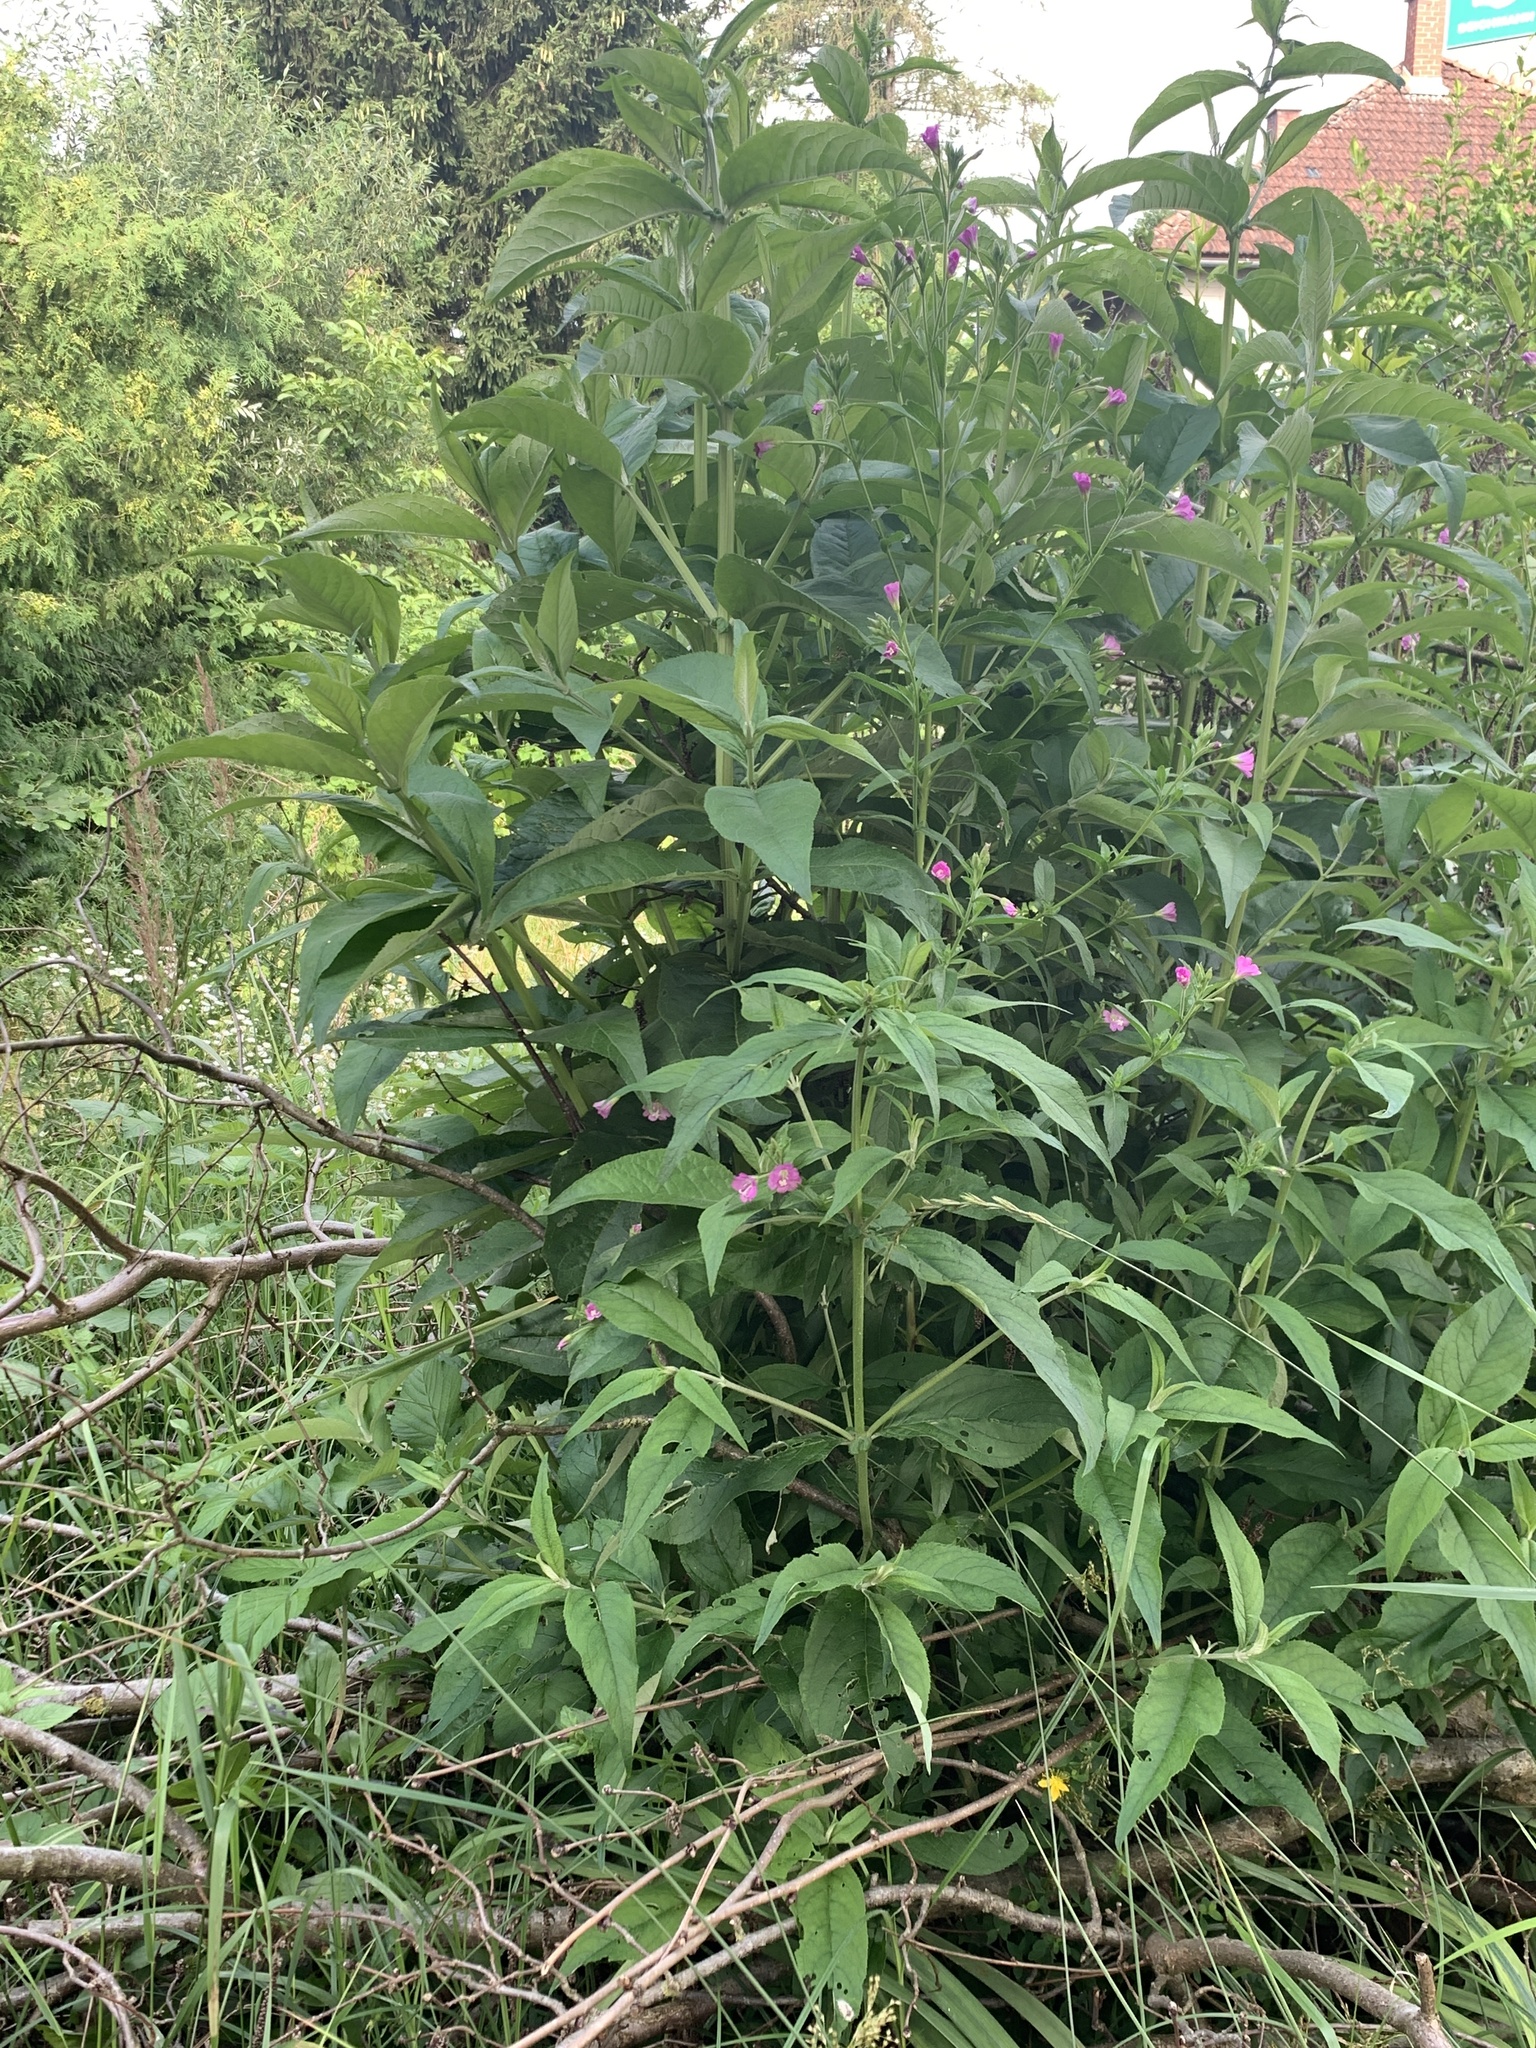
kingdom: Plantae
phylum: Tracheophyta
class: Magnoliopsida
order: Myrtales
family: Onagraceae
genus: Epilobium
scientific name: Epilobium hirsutum
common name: Great willowherb
